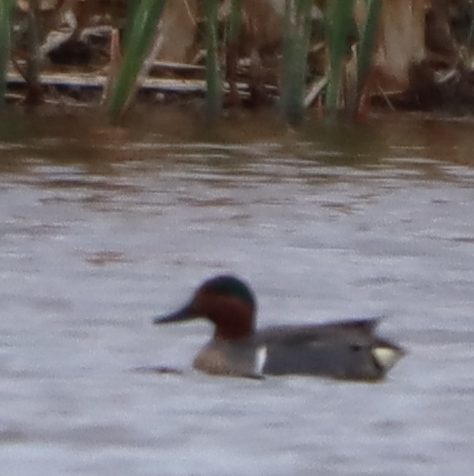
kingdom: Animalia
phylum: Chordata
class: Aves
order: Anseriformes
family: Anatidae
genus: Anas
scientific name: Anas crecca
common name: Eurasian teal
